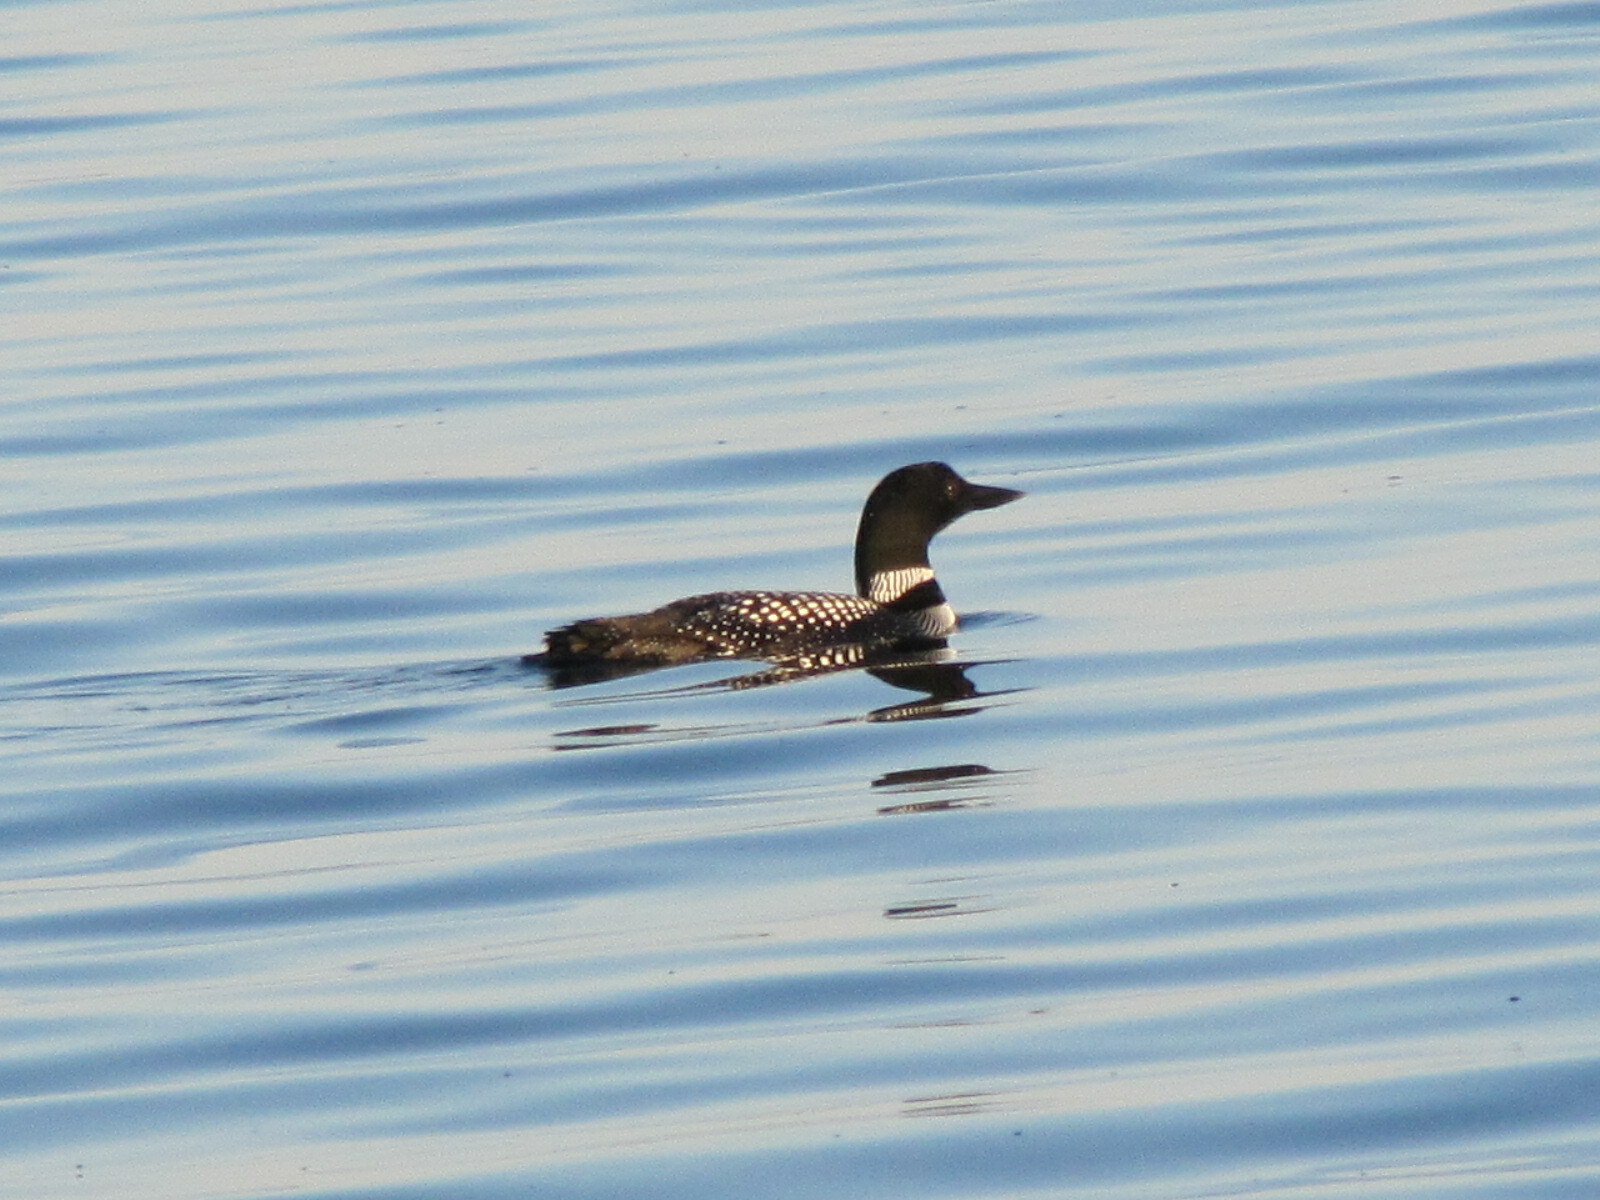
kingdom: Animalia
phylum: Chordata
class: Aves
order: Gaviiformes
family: Gaviidae
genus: Gavia
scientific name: Gavia immer
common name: Common loon
